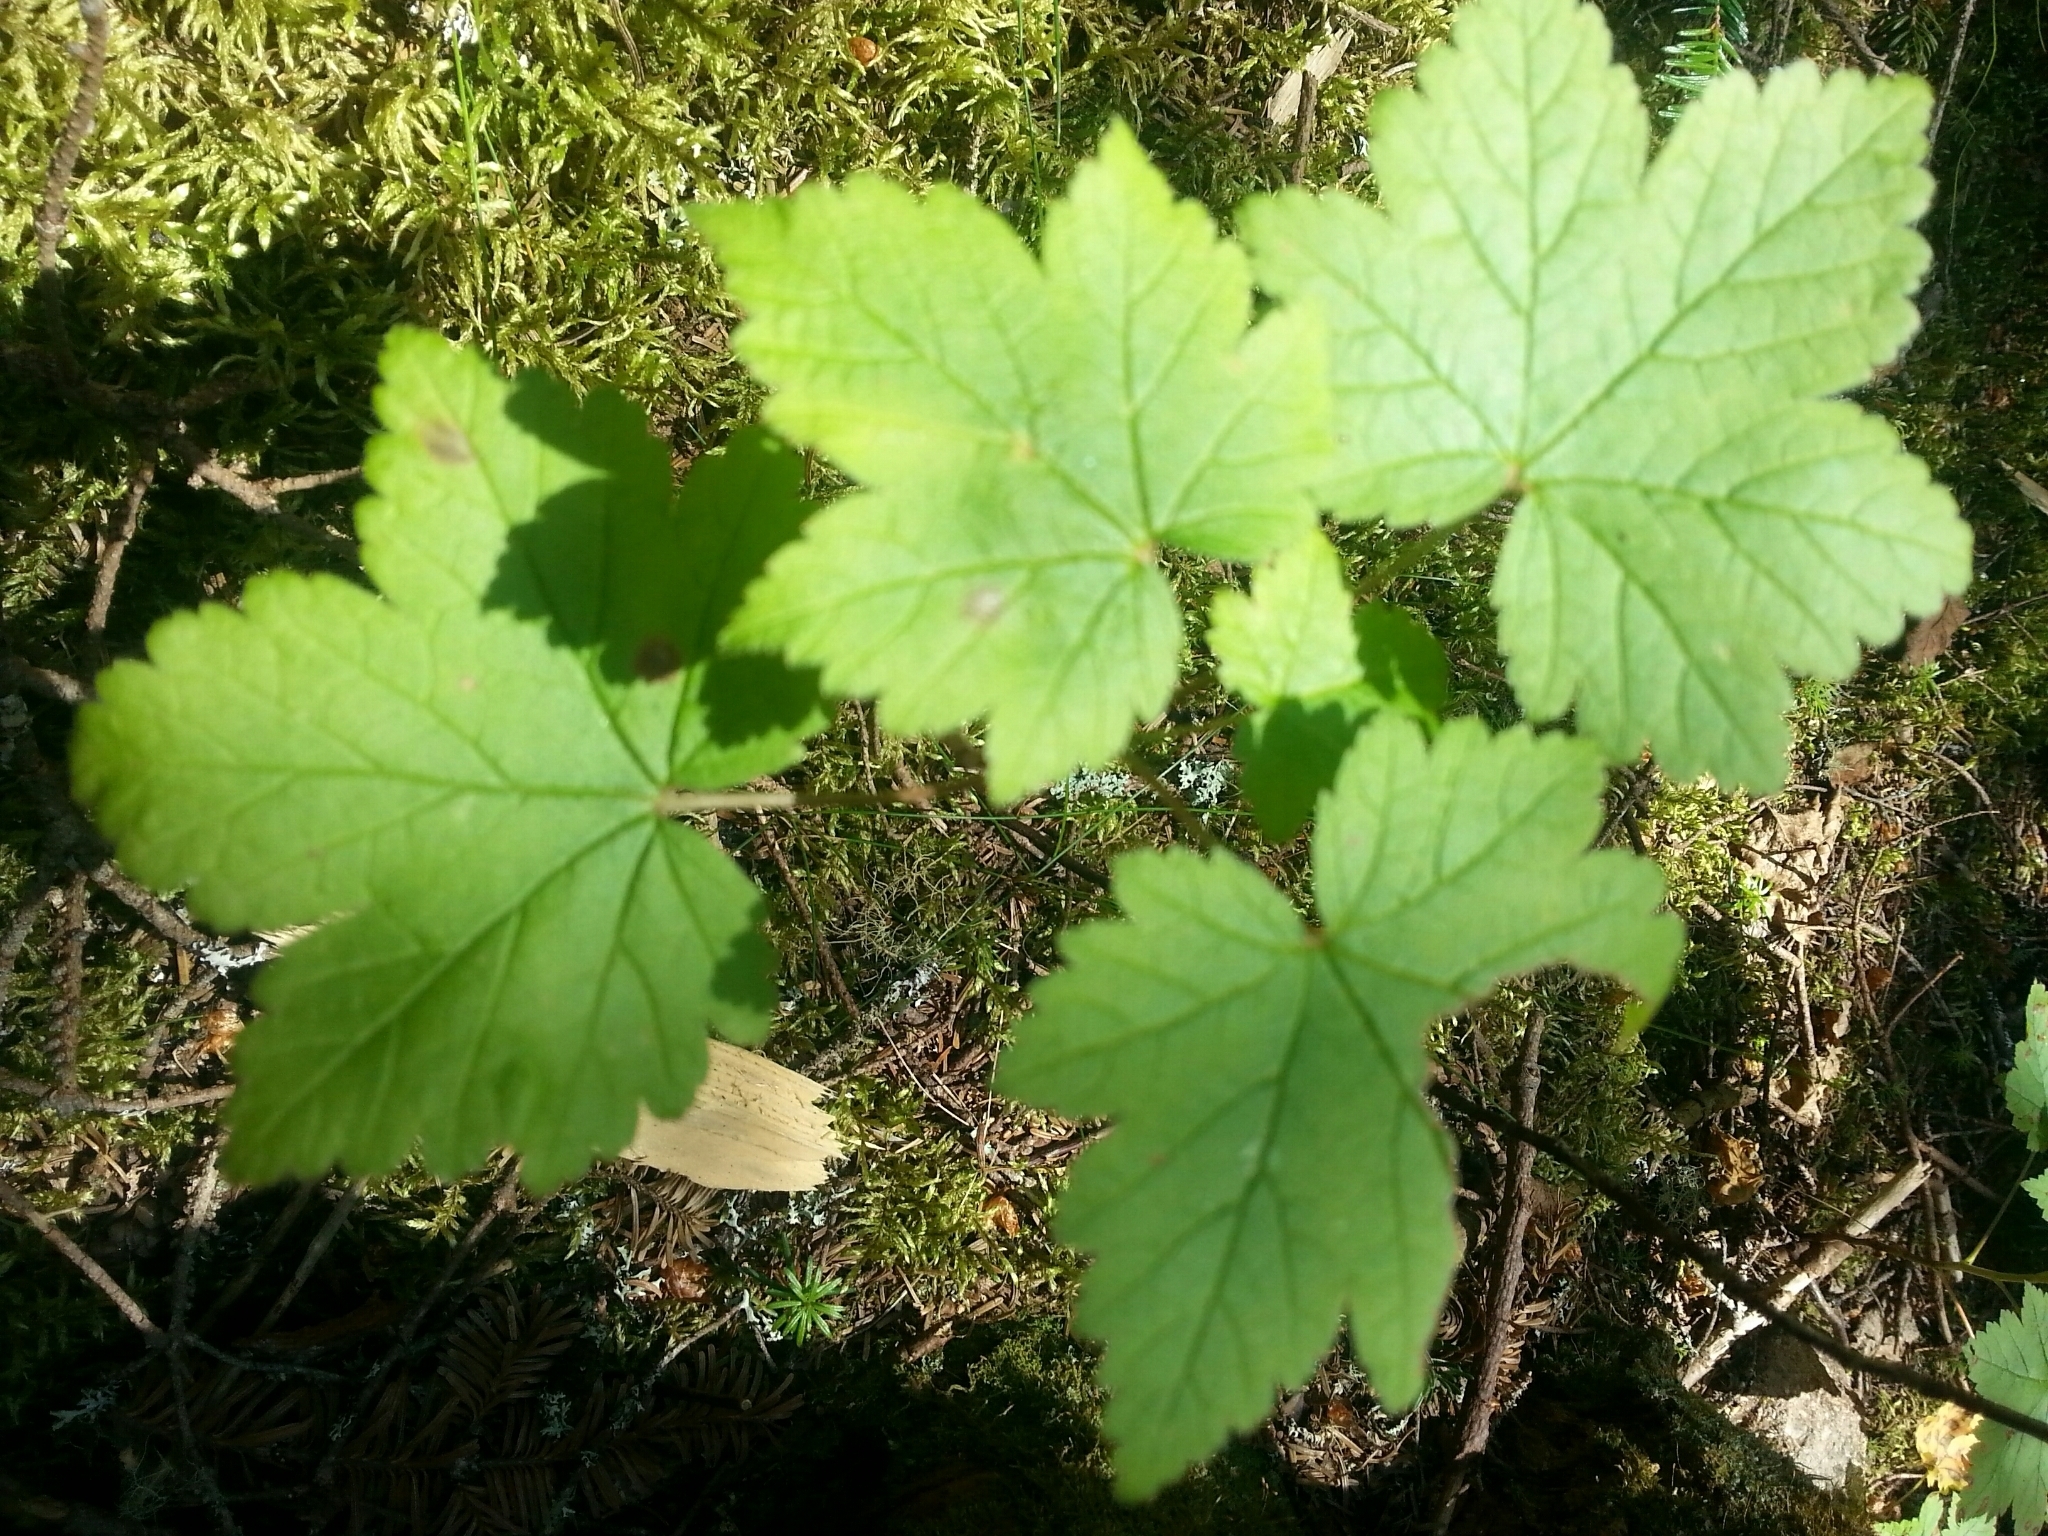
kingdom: Plantae
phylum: Tracheophyta
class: Magnoliopsida
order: Saxifragales
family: Grossulariaceae
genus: Ribes
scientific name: Ribes glandulosum
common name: Skunk currant
